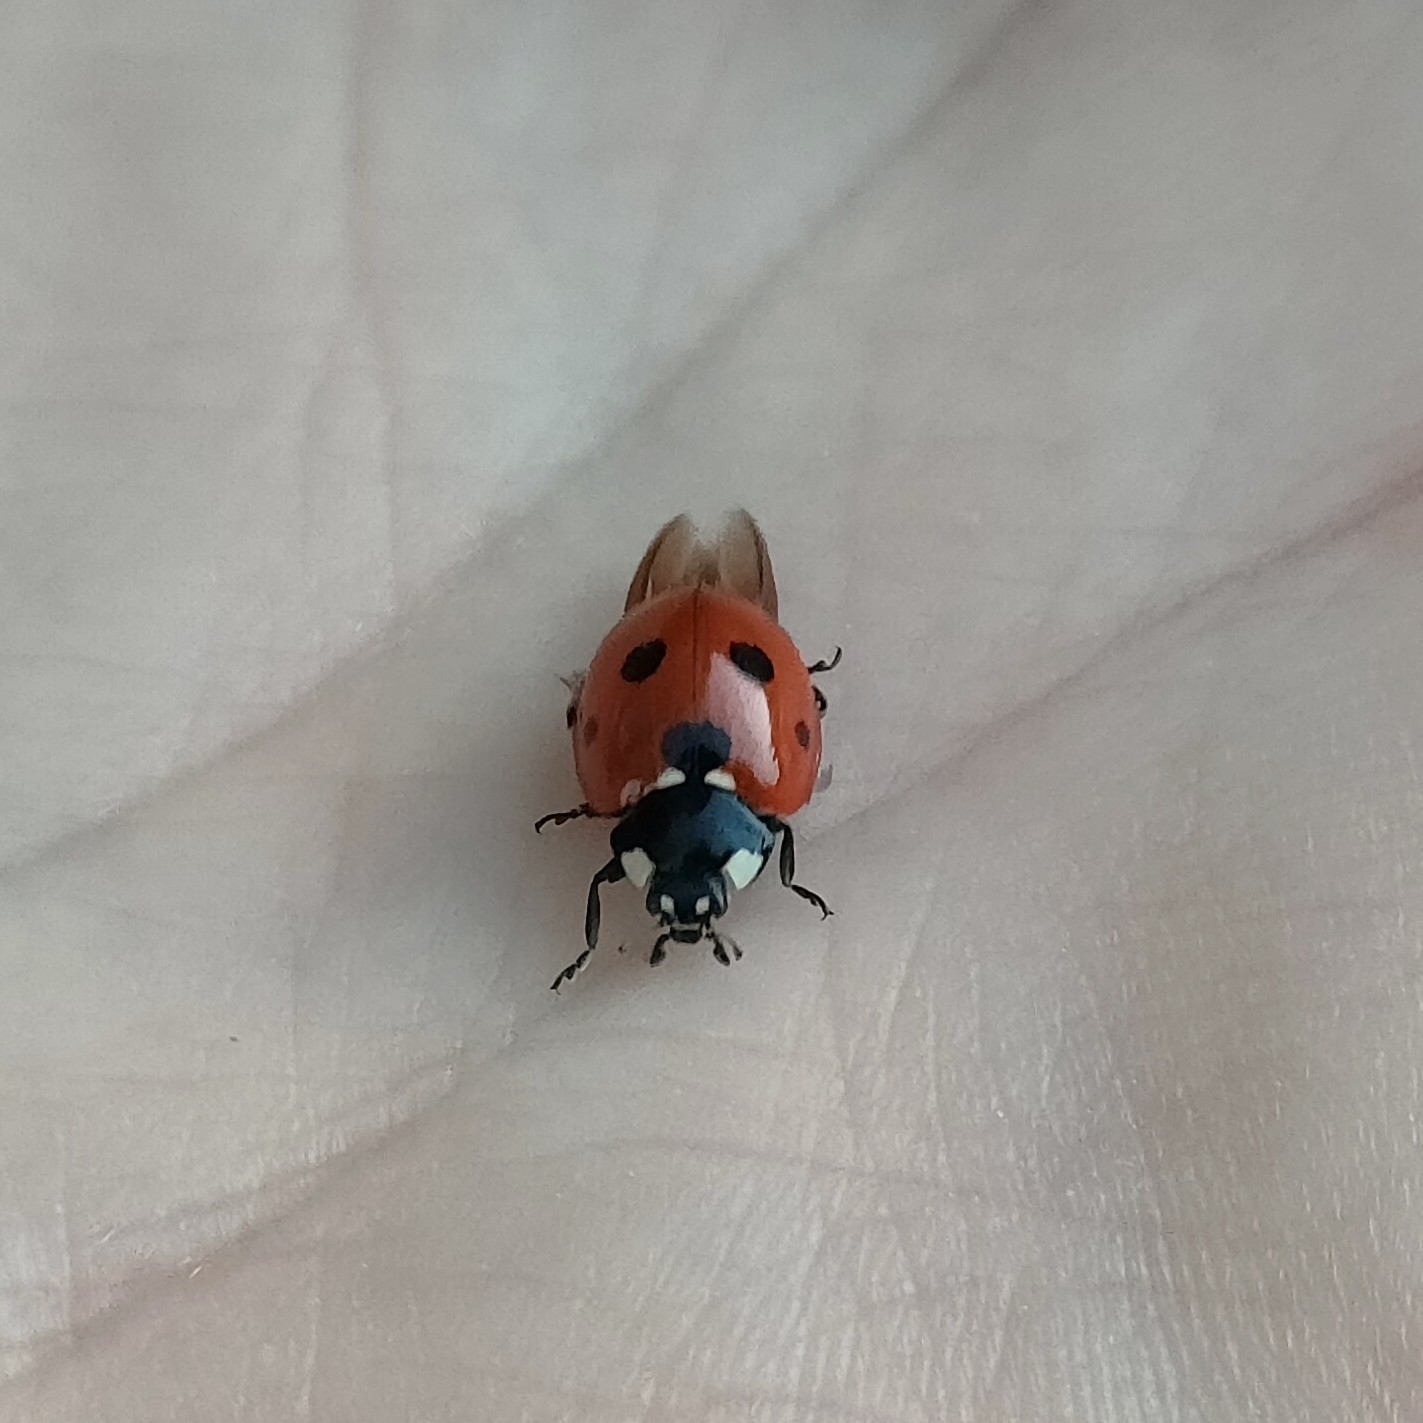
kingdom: Animalia
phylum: Arthropoda
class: Insecta
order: Coleoptera
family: Coccinellidae
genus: Coccinella
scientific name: Coccinella septempunctata
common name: Sevenspotted lady beetle
